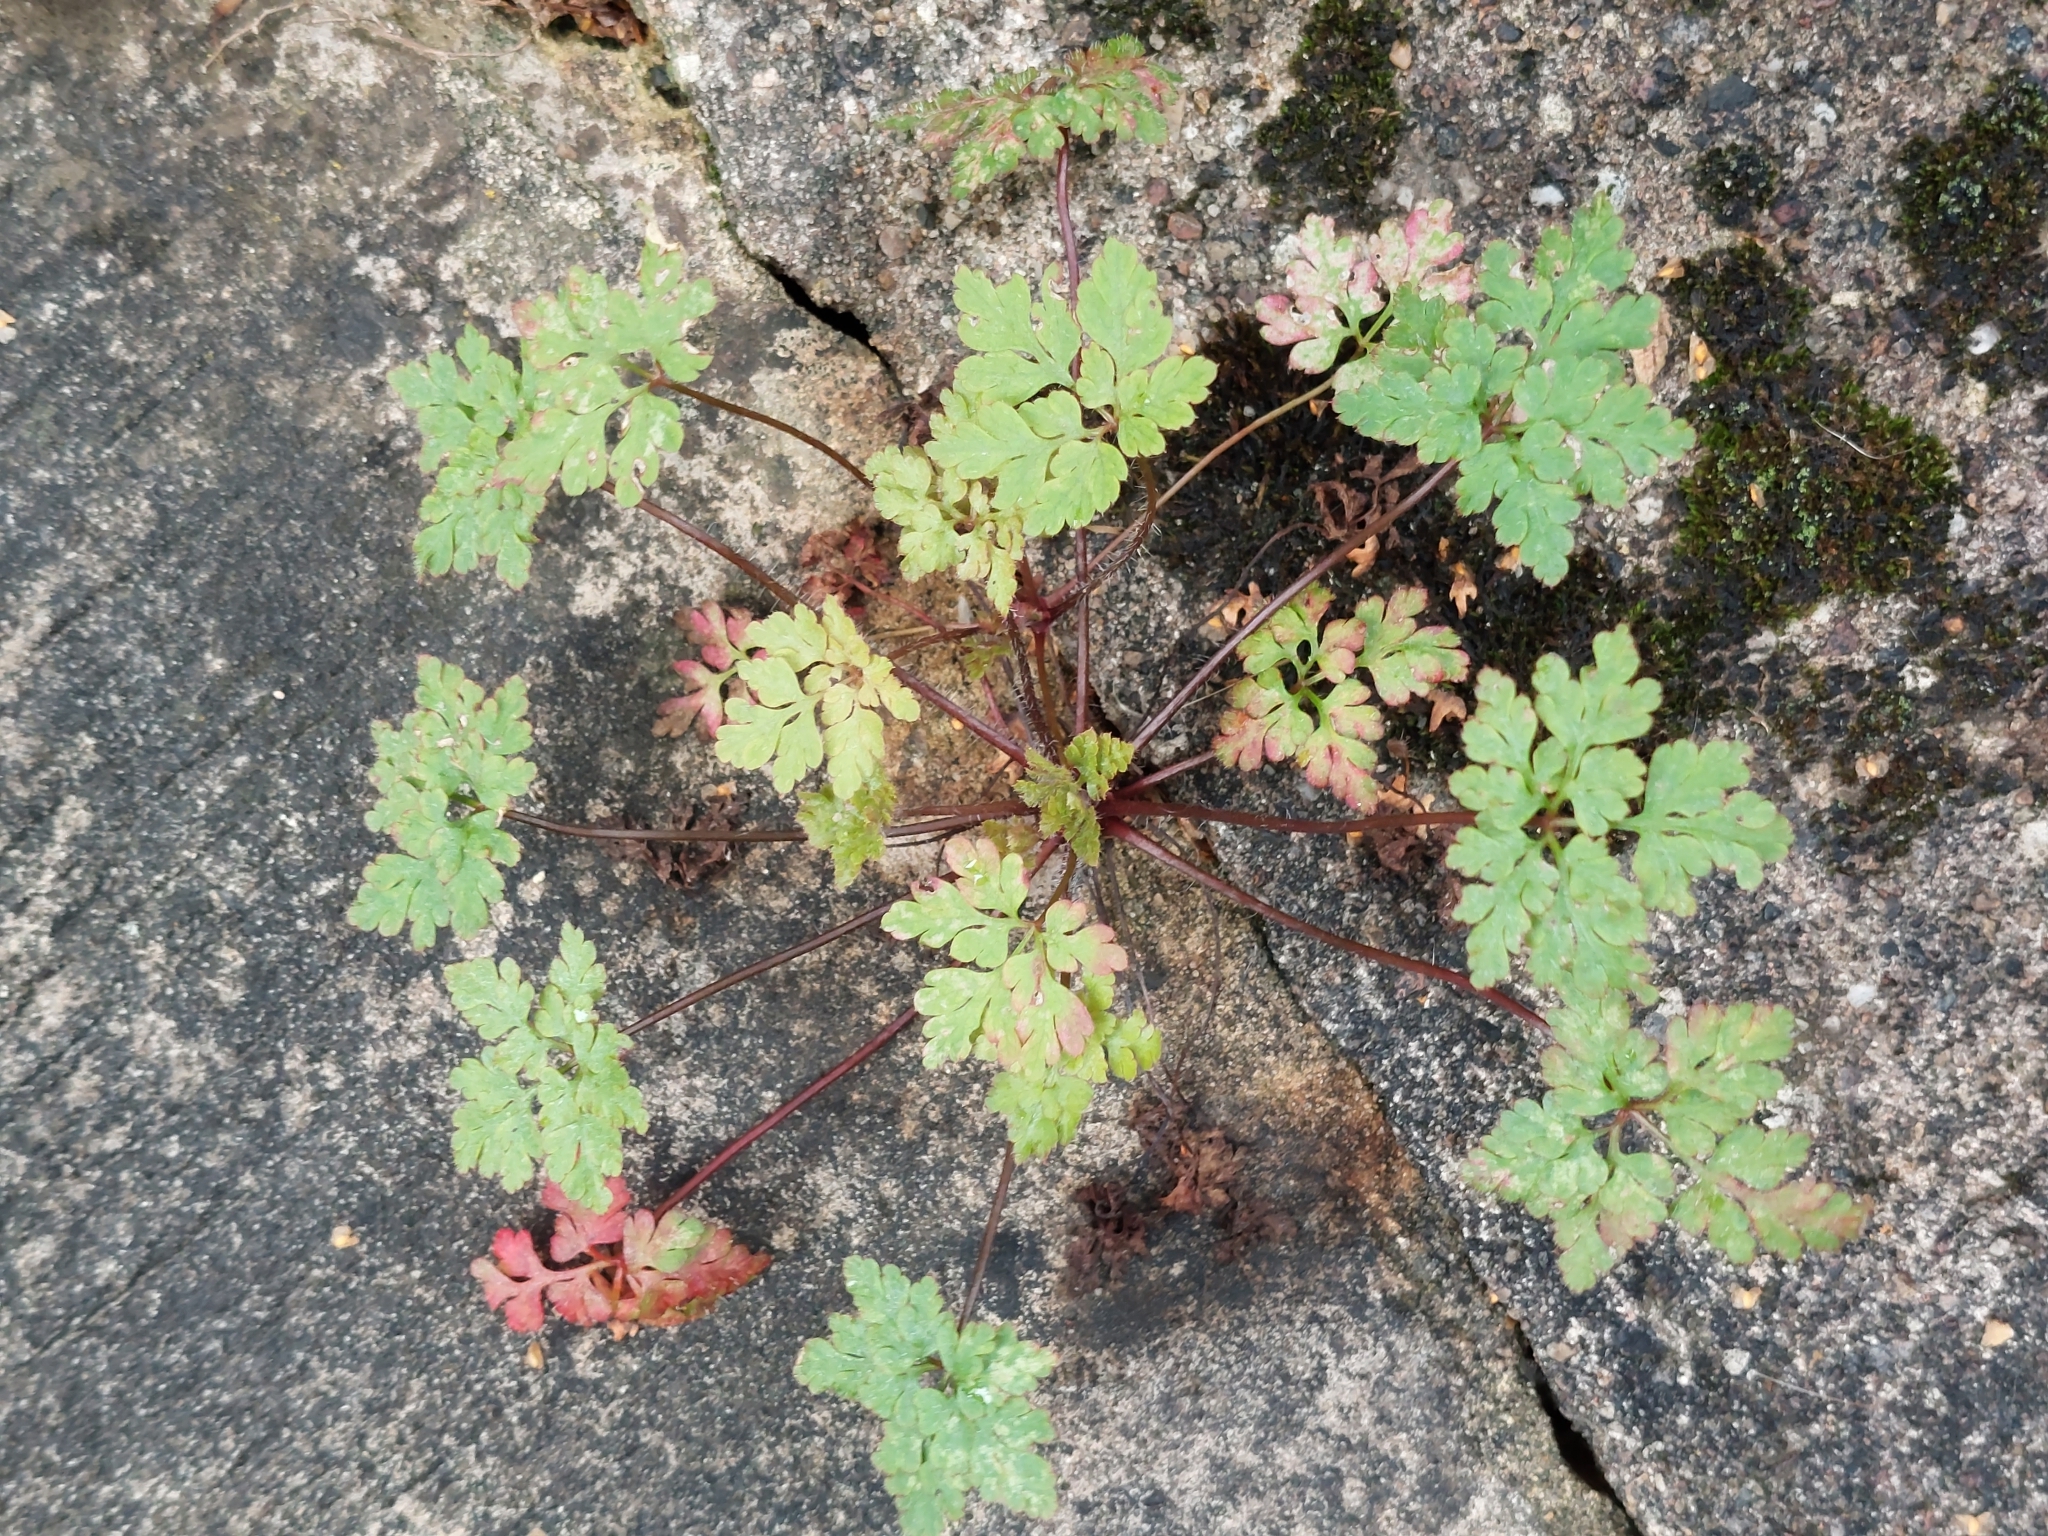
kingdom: Plantae
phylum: Tracheophyta
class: Magnoliopsida
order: Geraniales
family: Geraniaceae
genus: Geranium
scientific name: Geranium robertianum
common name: Herb-robert
